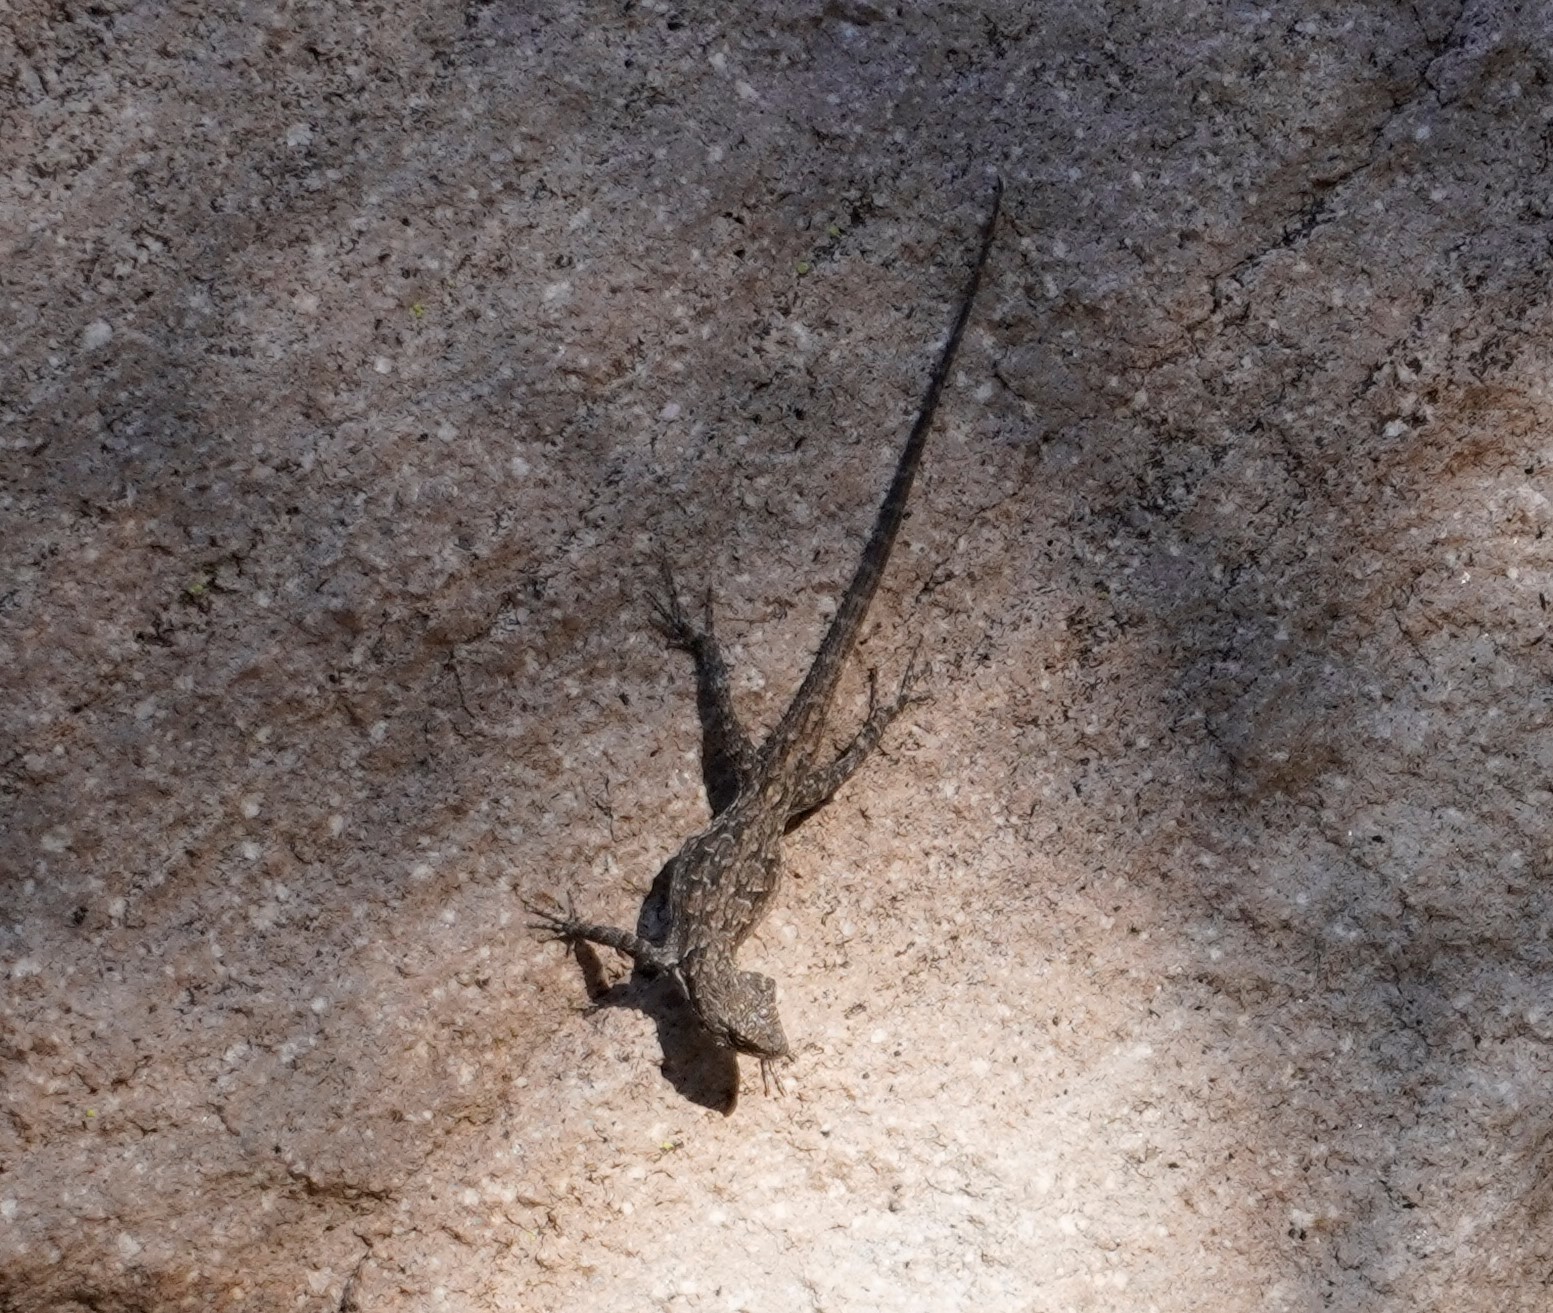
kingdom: Animalia
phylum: Chordata
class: Squamata
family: Phrynosomatidae
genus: Urosaurus
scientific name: Urosaurus ornatus
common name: Ornate tree lizard
